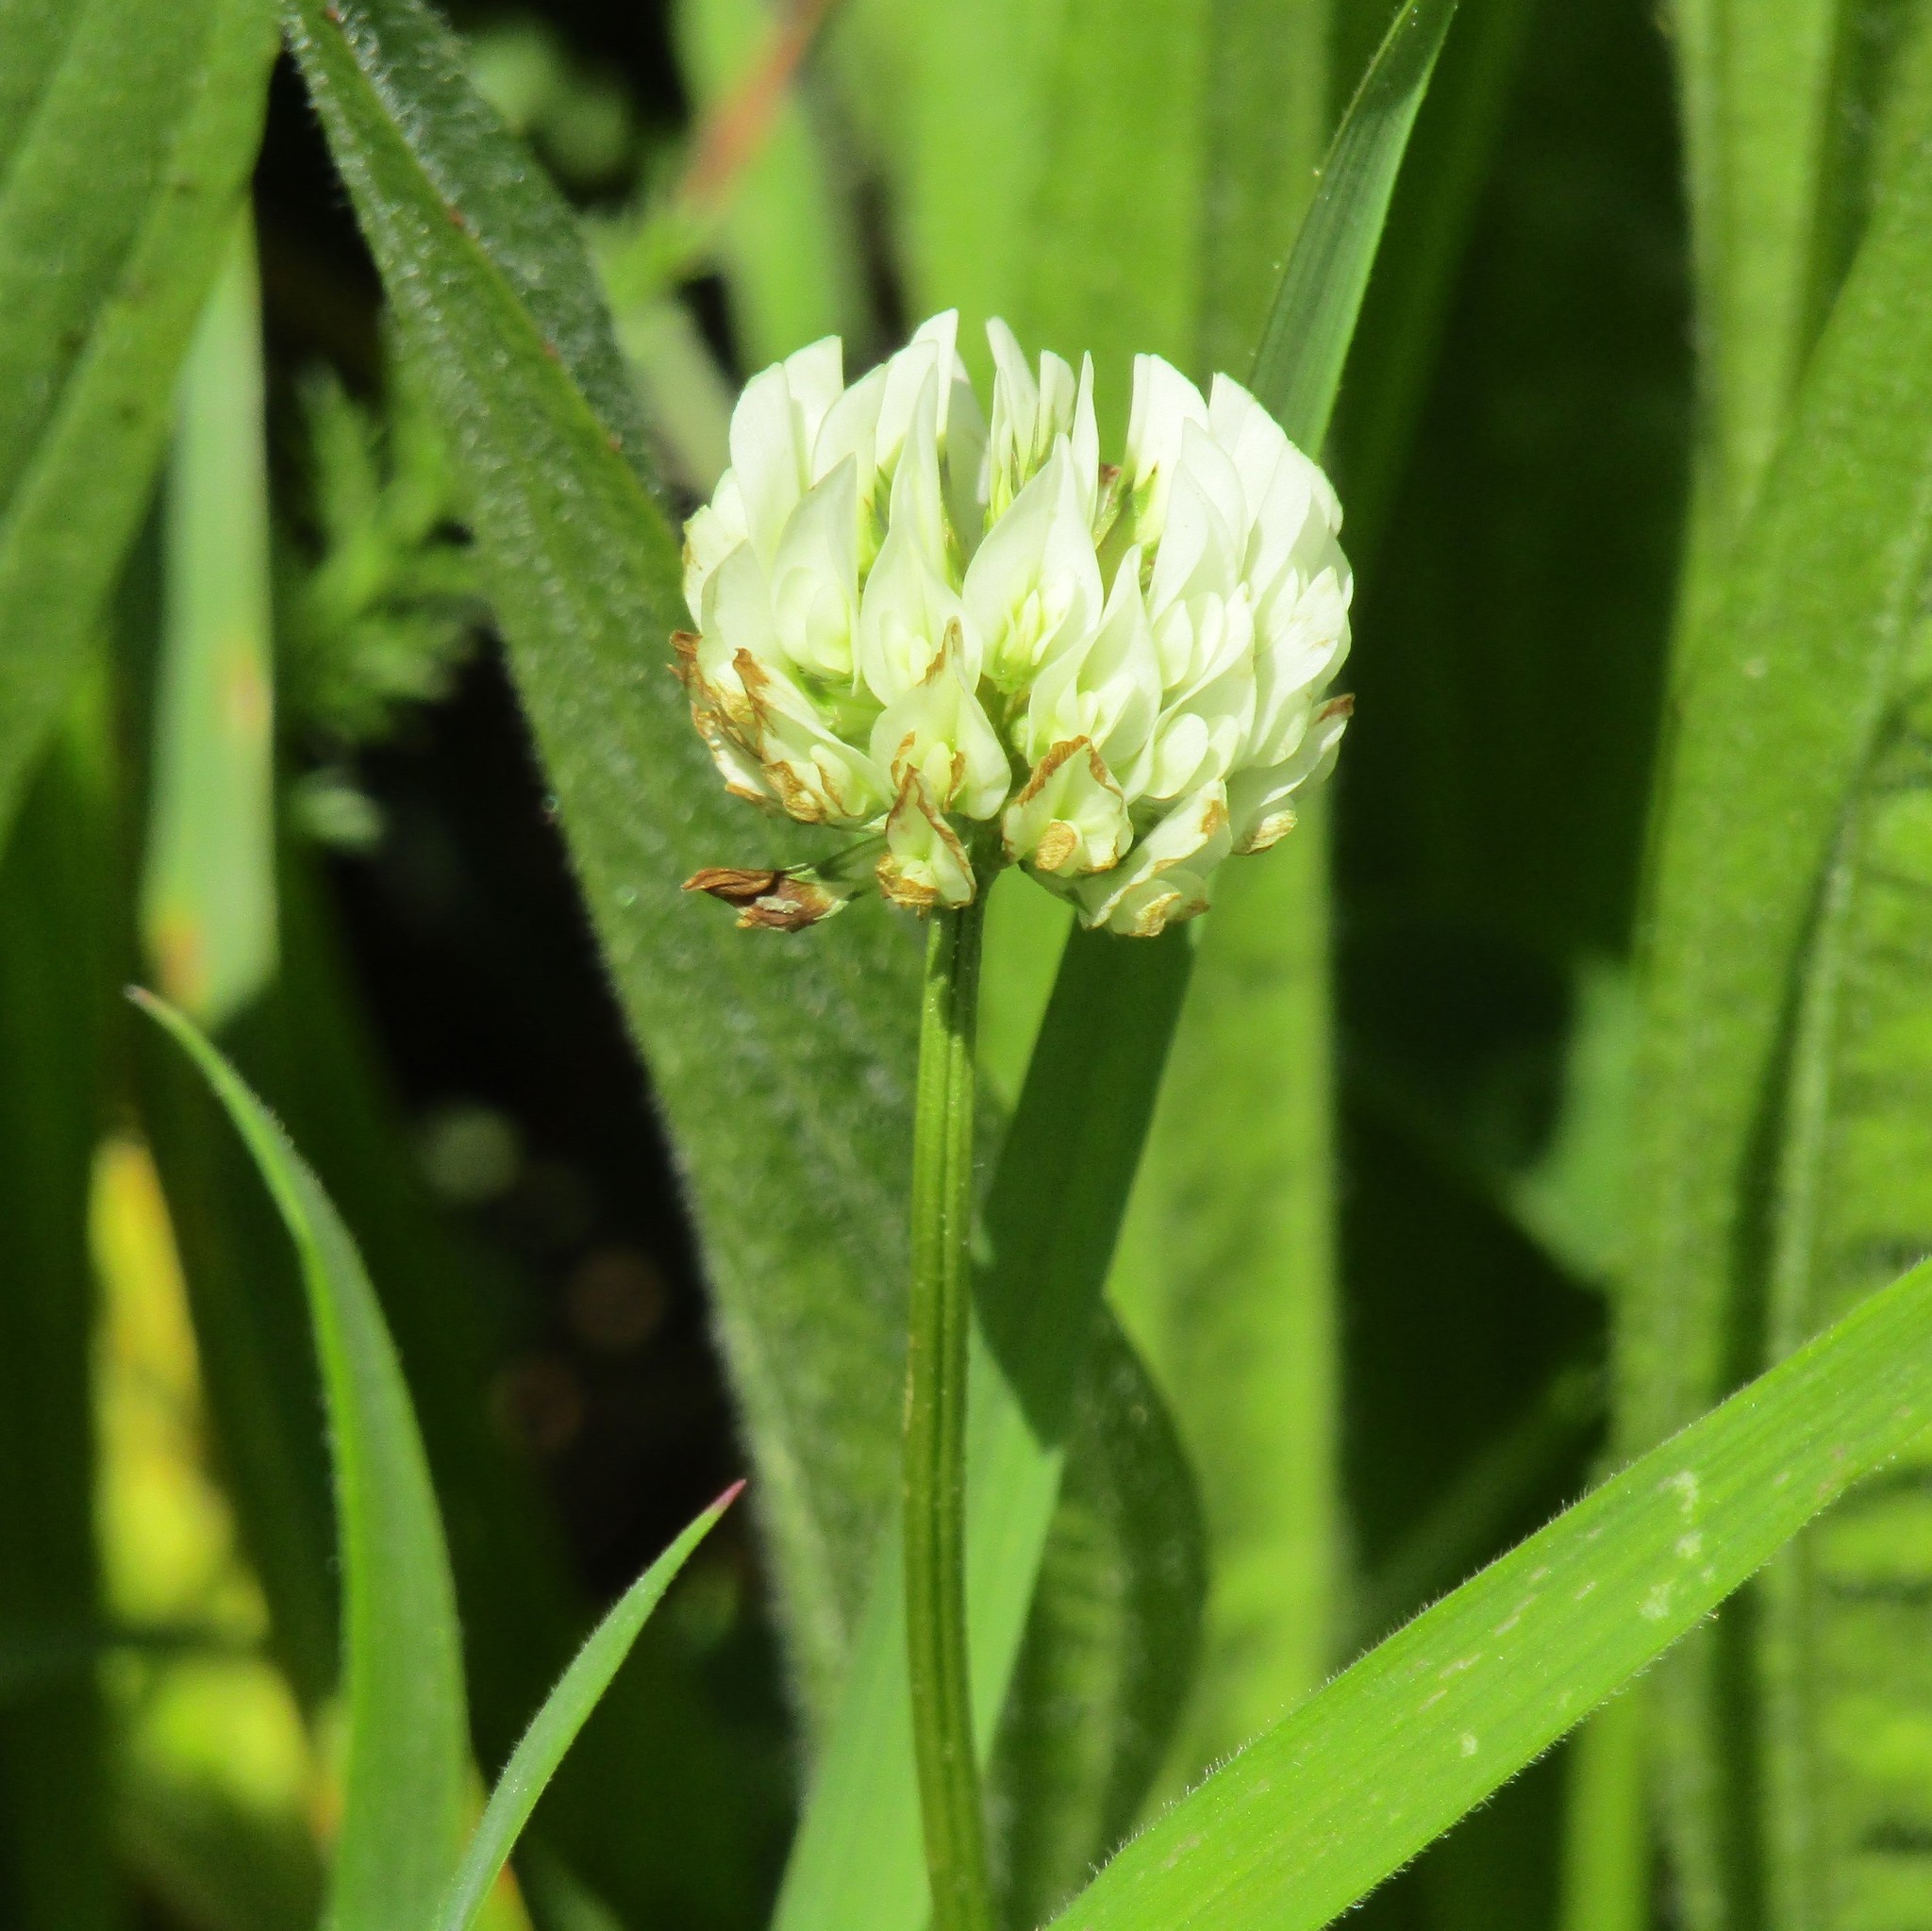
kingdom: Plantae
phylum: Tracheophyta
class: Magnoliopsida
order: Fabales
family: Fabaceae
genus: Trifolium
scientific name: Trifolium repens
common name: White clover
